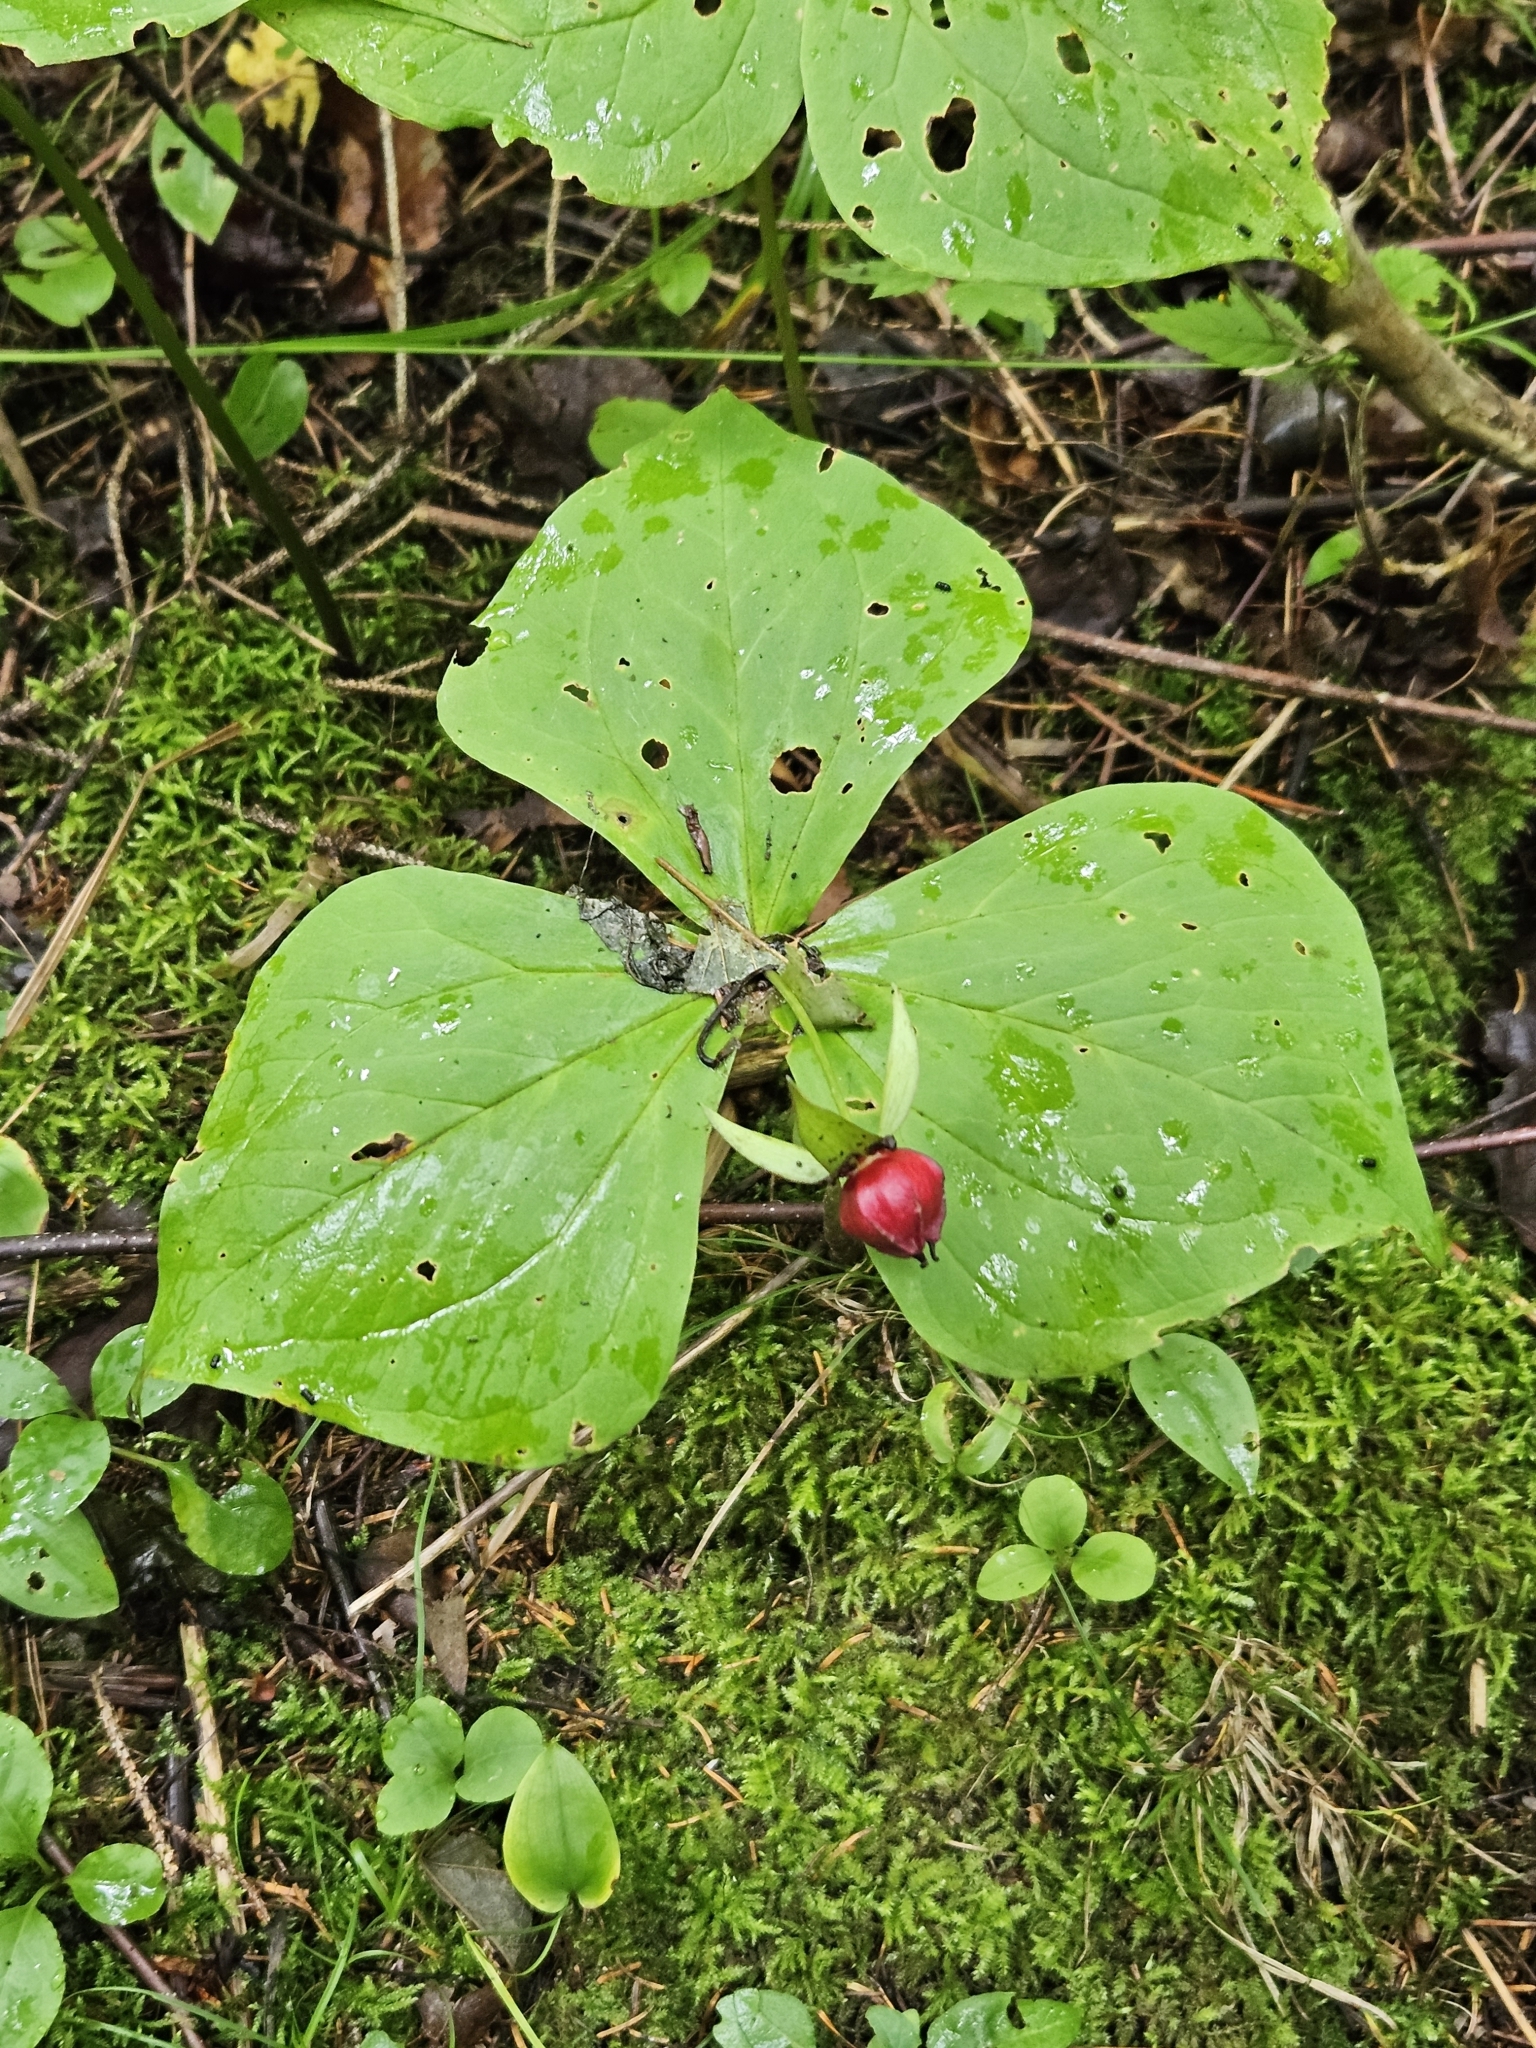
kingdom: Plantae
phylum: Tracheophyta
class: Liliopsida
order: Liliales
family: Melanthiaceae
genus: Trillium
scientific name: Trillium erectum
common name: Purple trillium
